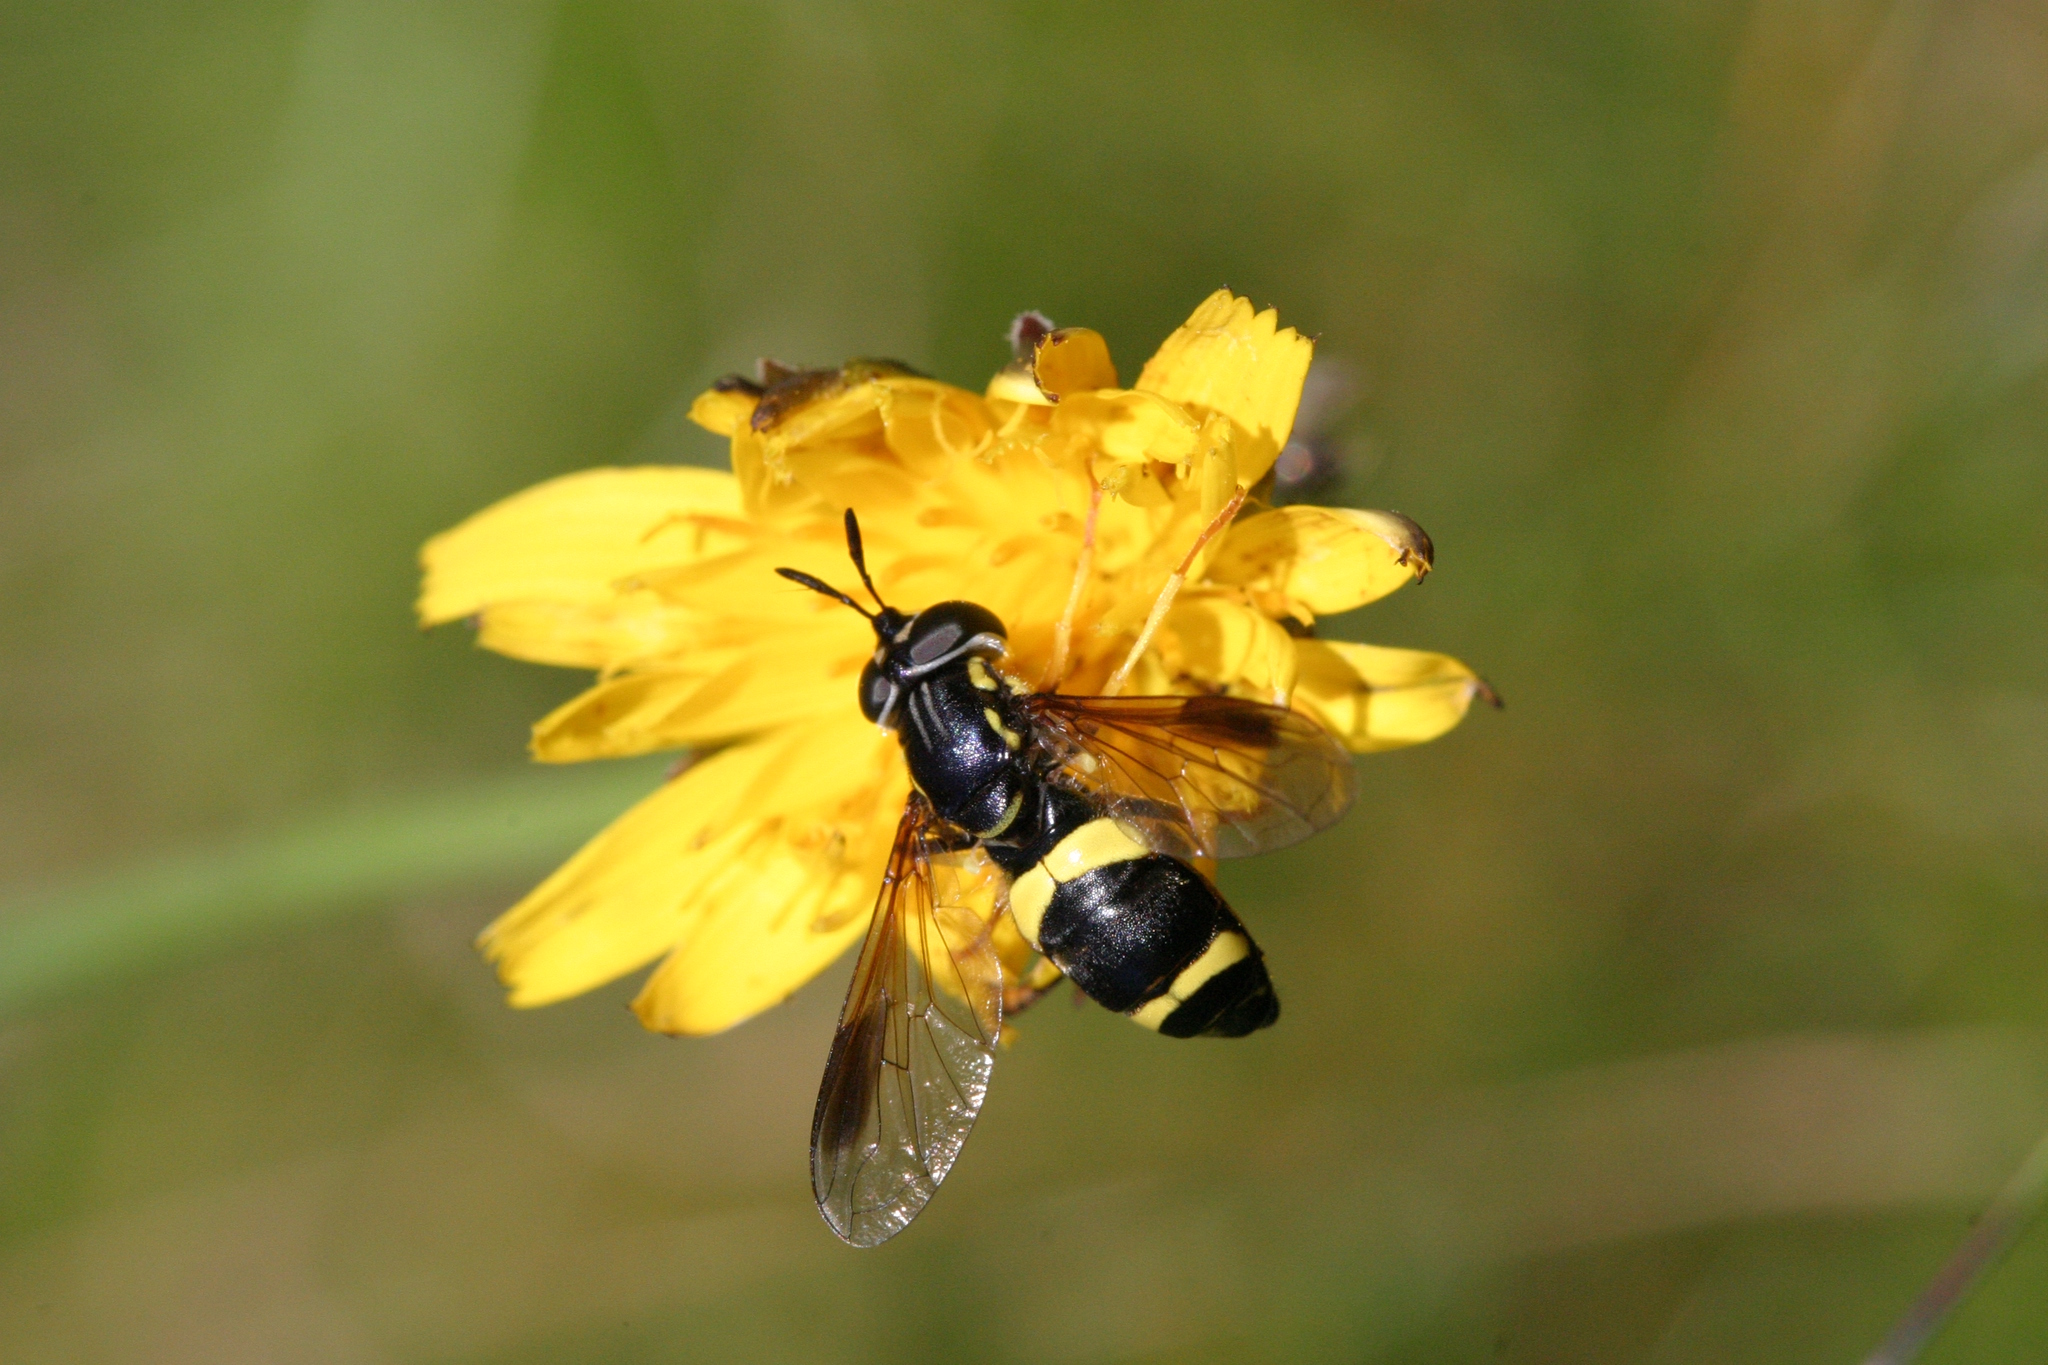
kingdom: Animalia
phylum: Arthropoda
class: Insecta
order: Diptera
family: Syrphidae
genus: Chrysotoxum
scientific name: Chrysotoxum bicincta
